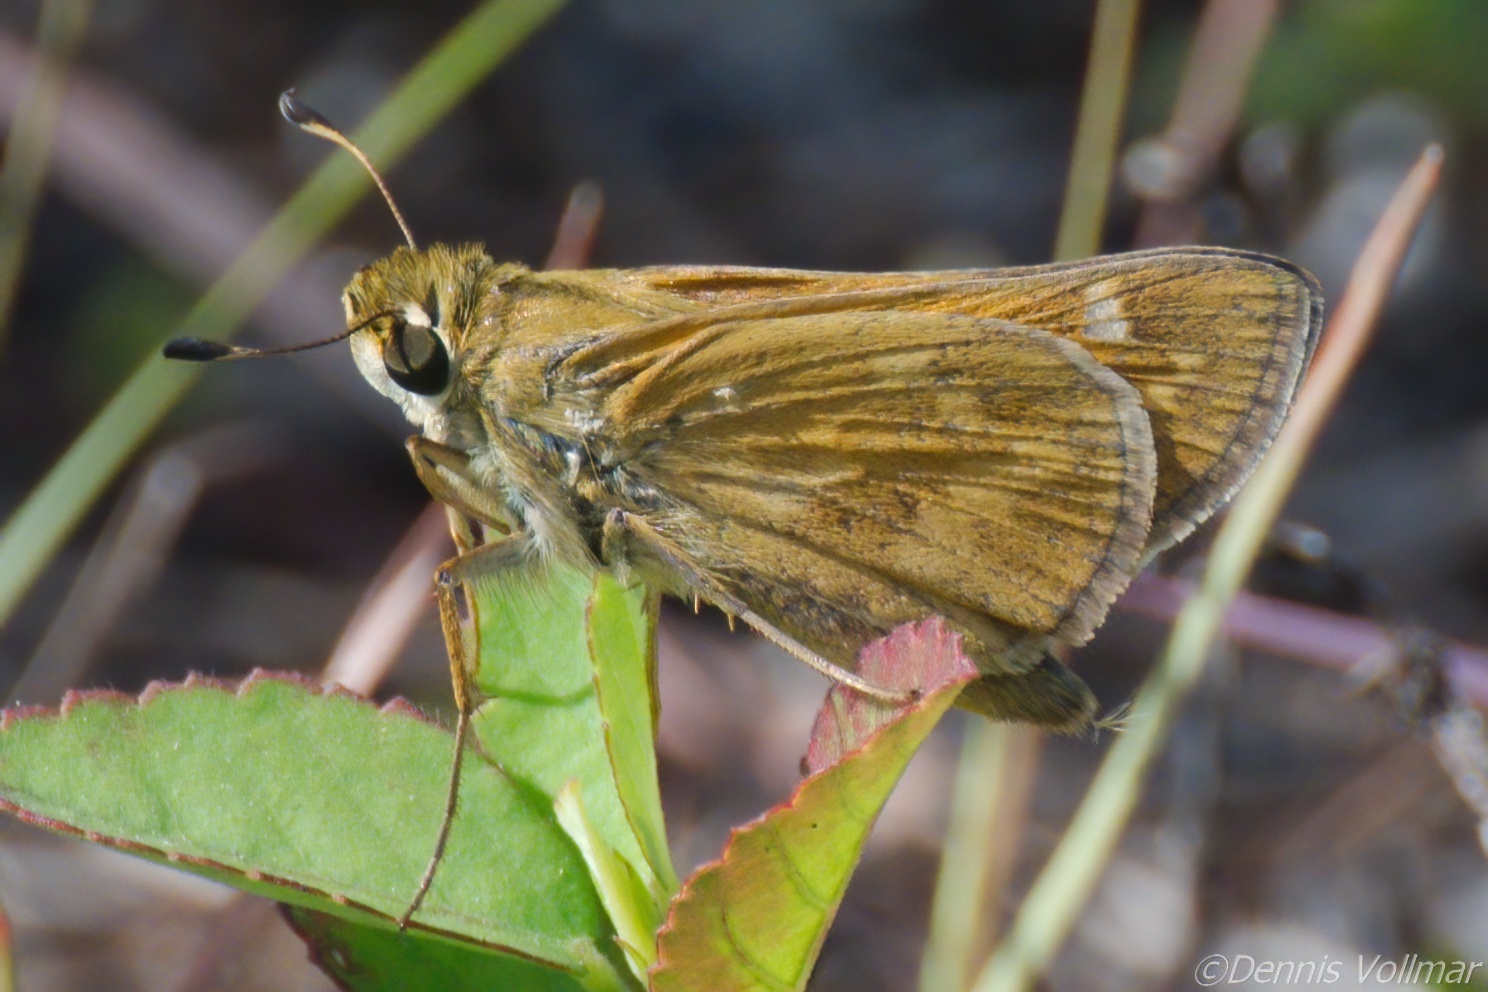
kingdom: Animalia
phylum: Arthropoda
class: Insecta
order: Lepidoptera
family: Hesperiidae
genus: Atalopedes
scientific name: Atalopedes
